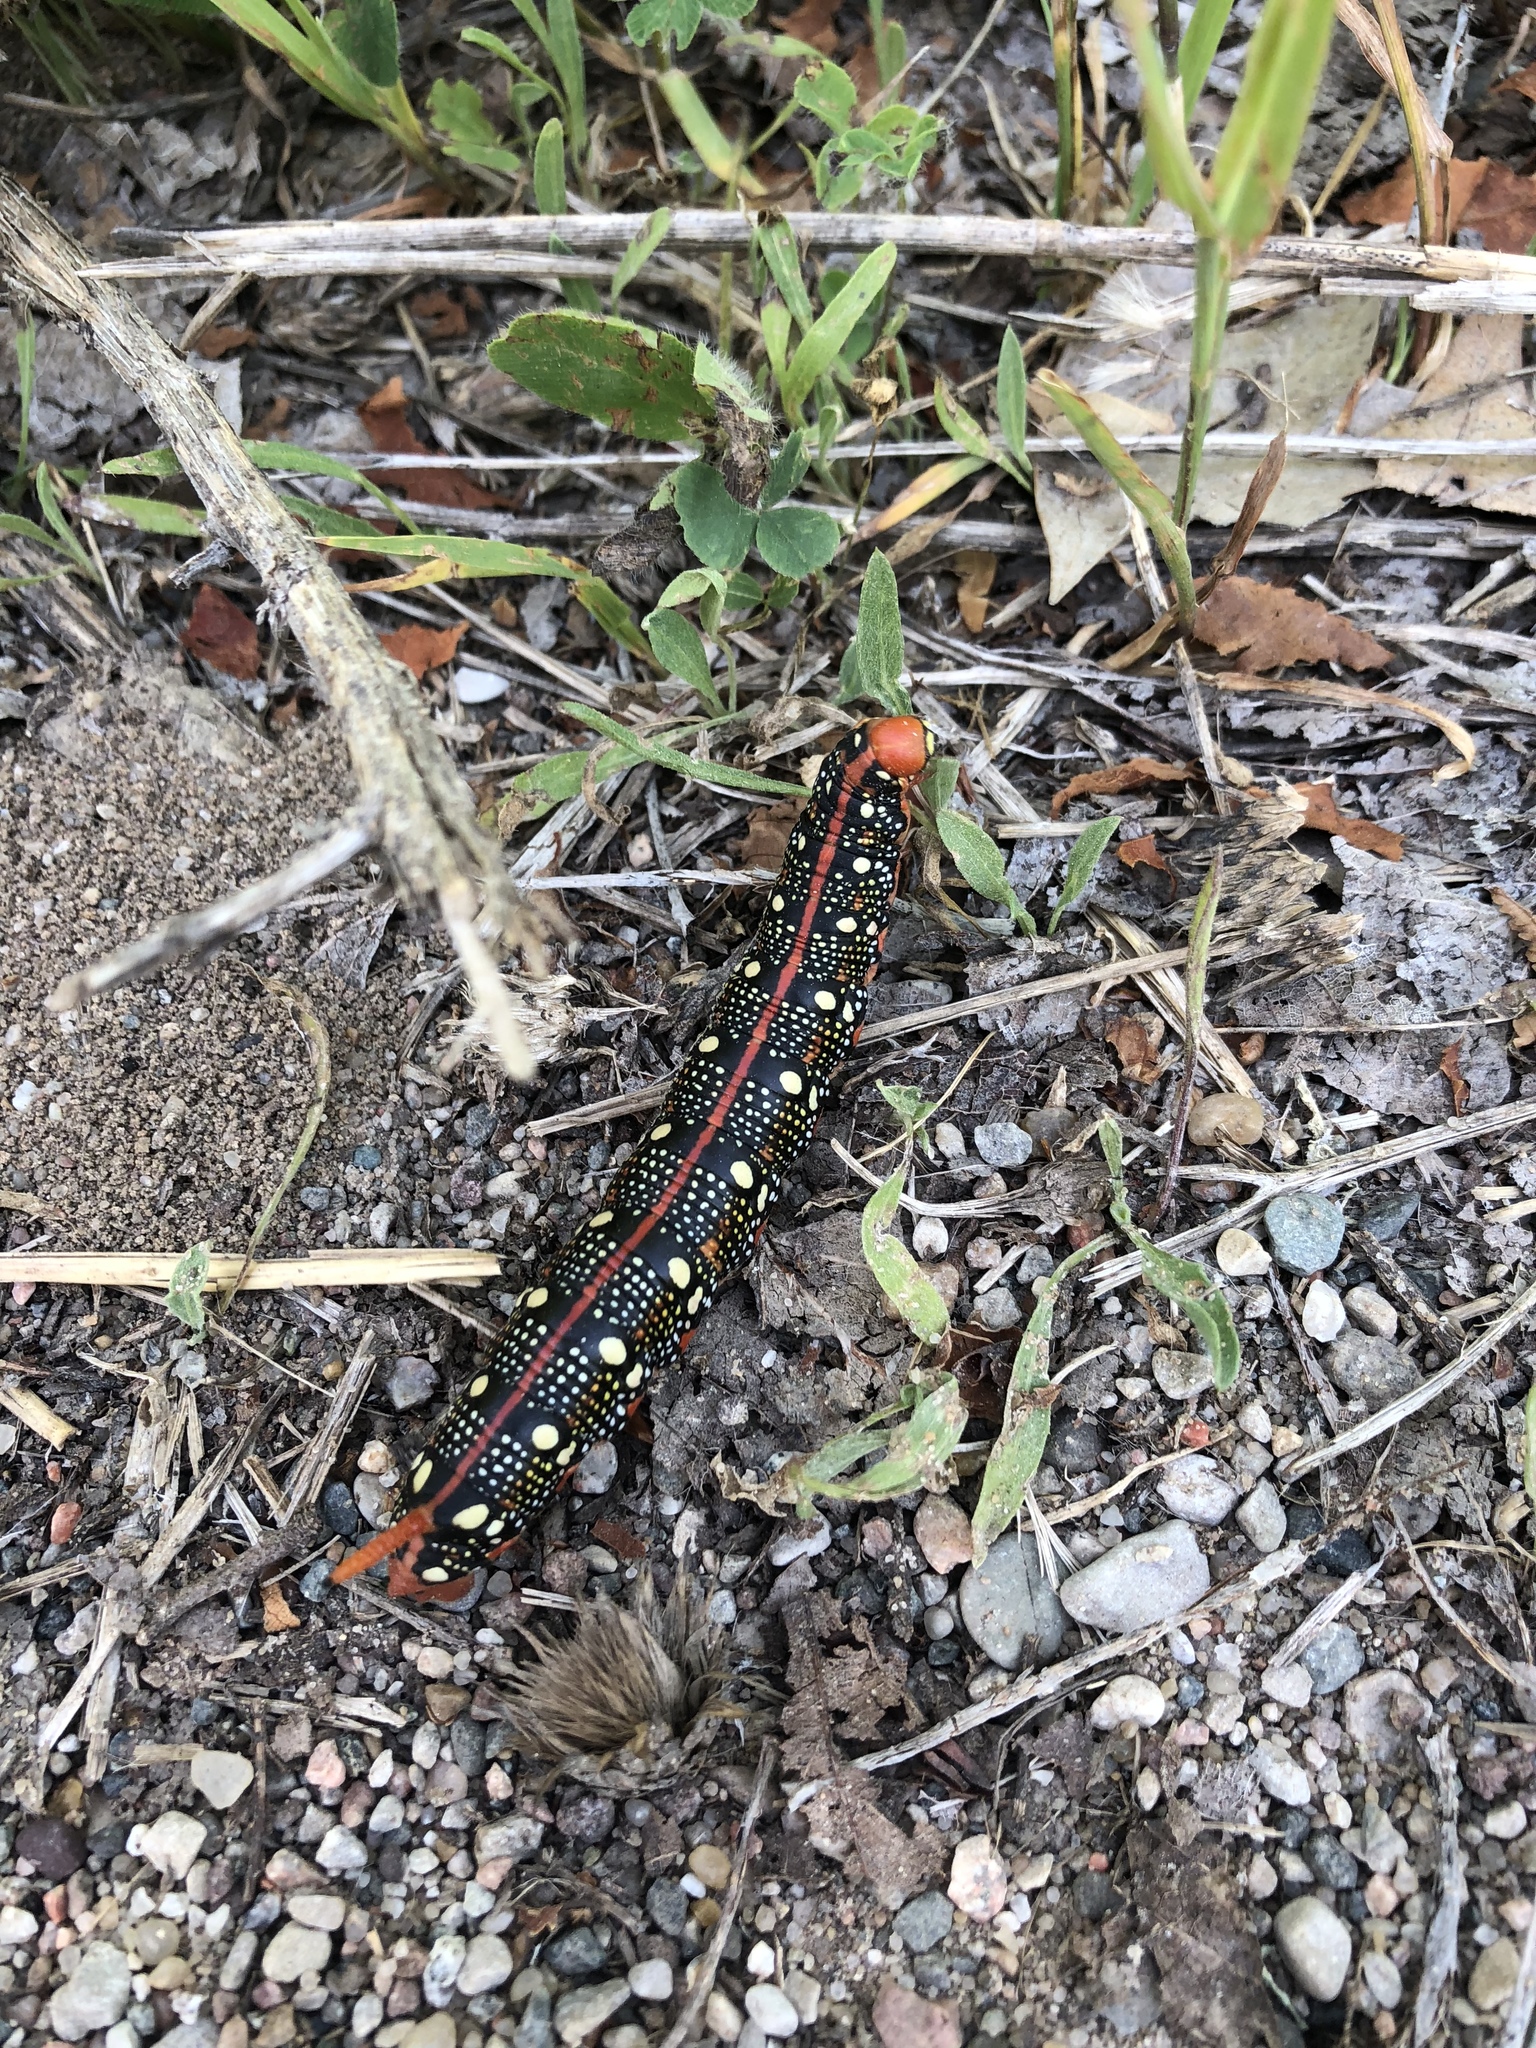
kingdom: Animalia
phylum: Arthropoda
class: Insecta
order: Lepidoptera
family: Sphingidae
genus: Hyles
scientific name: Hyles euphorbiae
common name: Spurge hawk-moth
